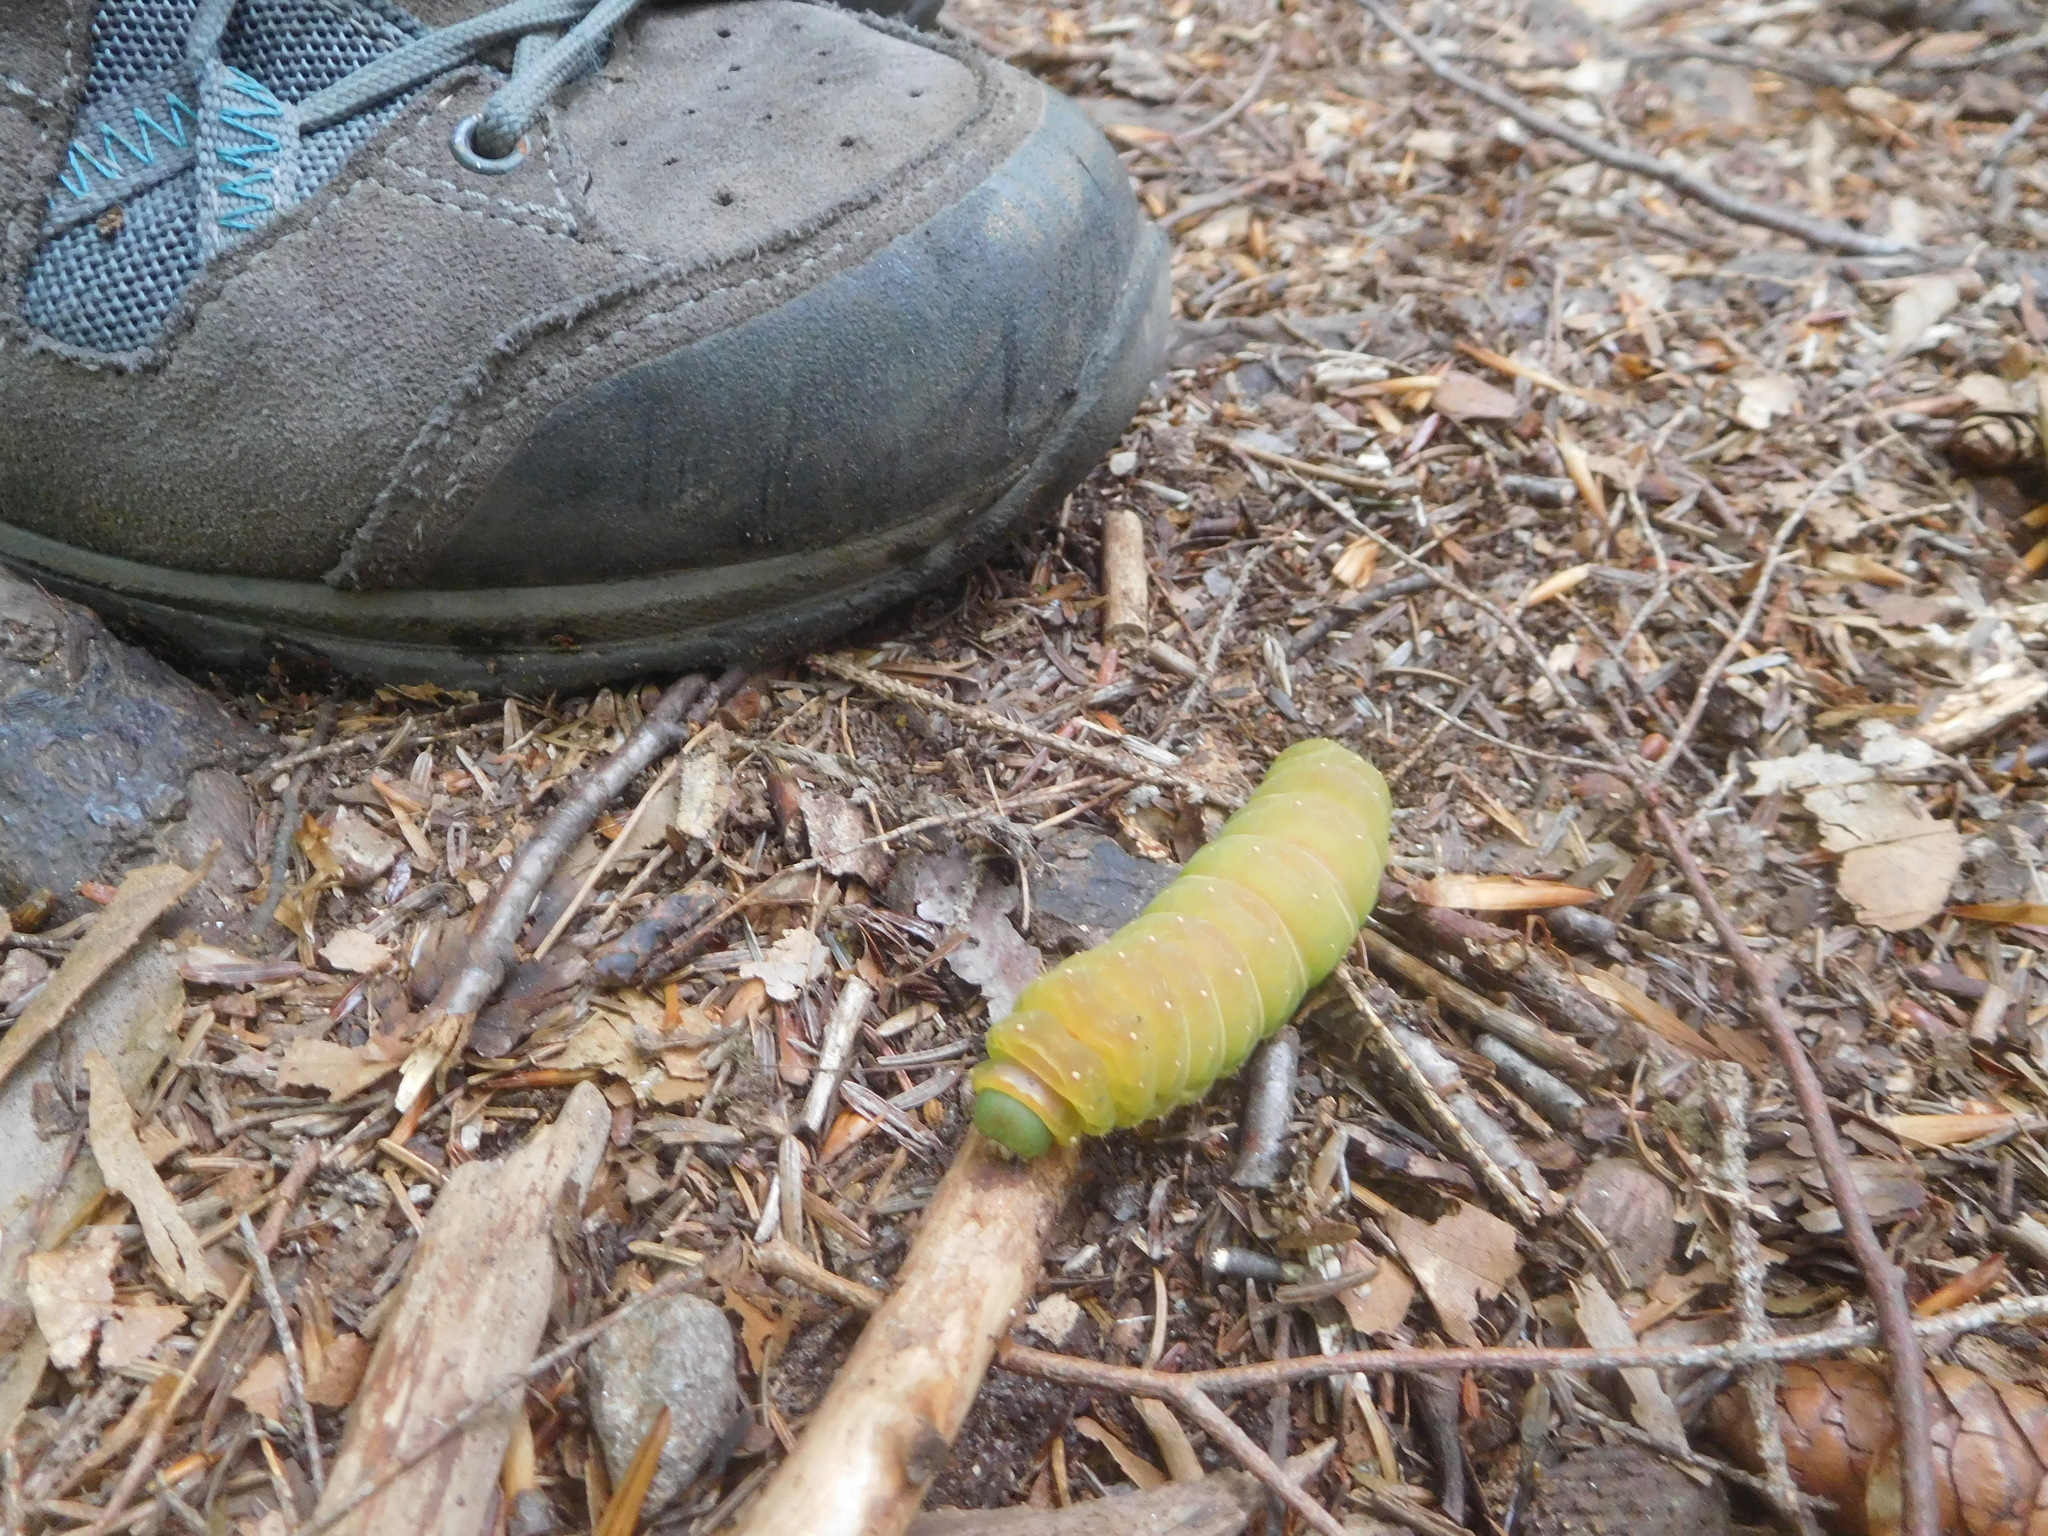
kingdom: Animalia
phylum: Arthropoda
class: Insecta
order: Lepidoptera
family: Saturniidae
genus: Actias
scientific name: Actias luna
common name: Luna moth
